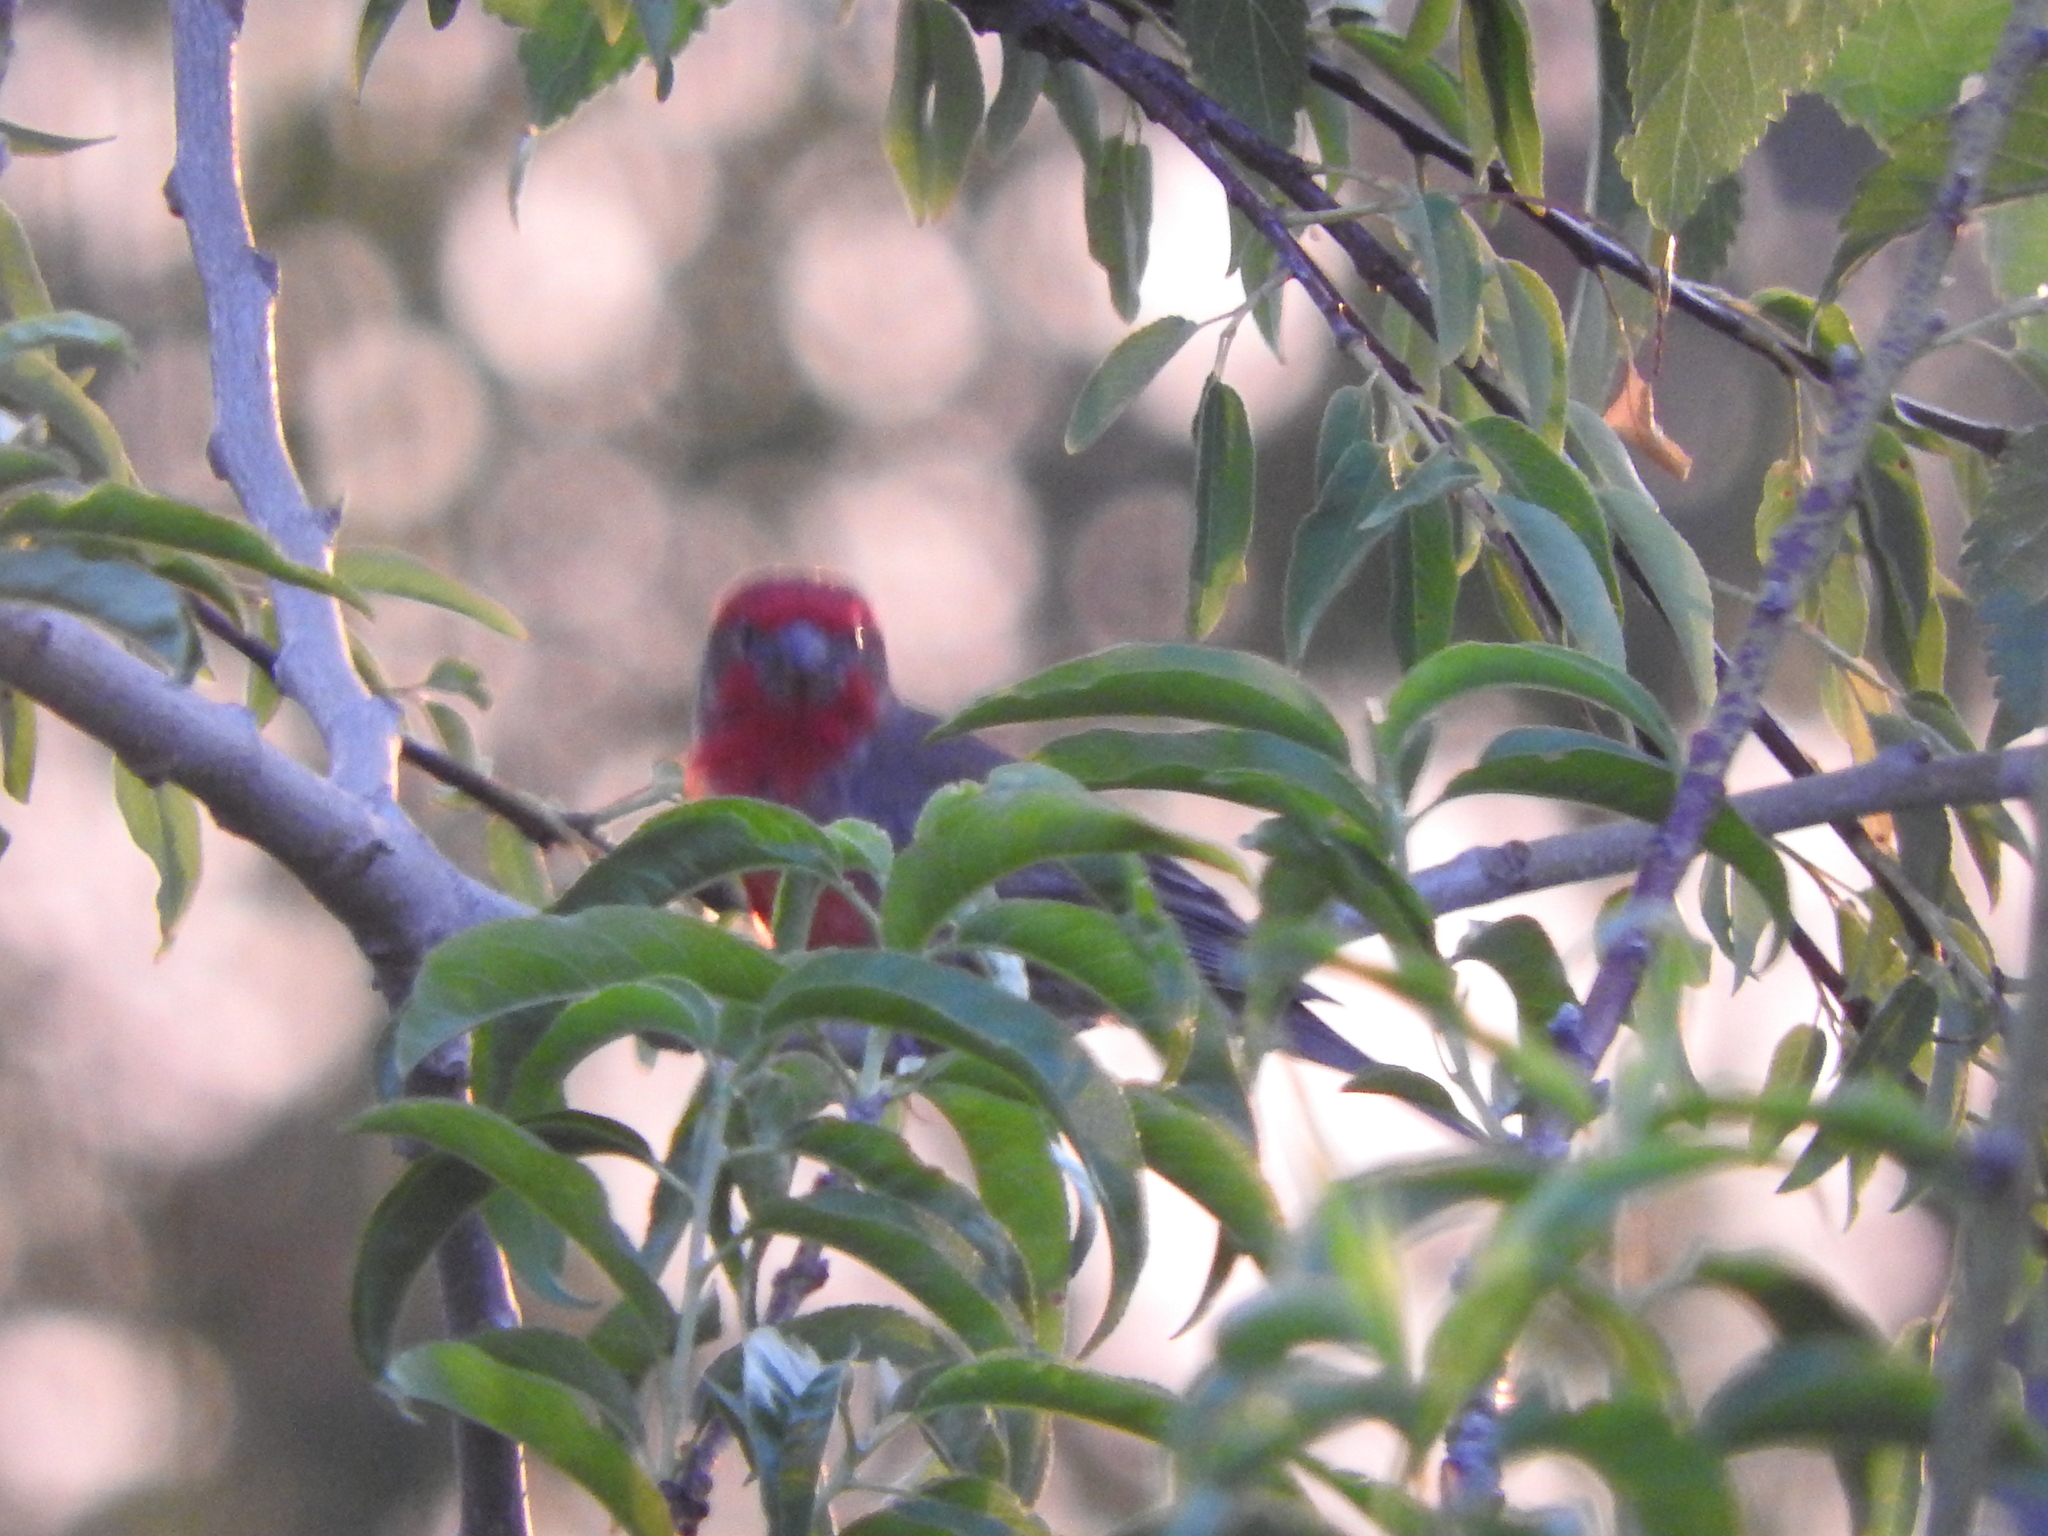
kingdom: Animalia
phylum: Chordata
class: Aves
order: Passeriformes
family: Fringillidae
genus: Haemorhous
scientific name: Haemorhous mexicanus
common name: House finch
